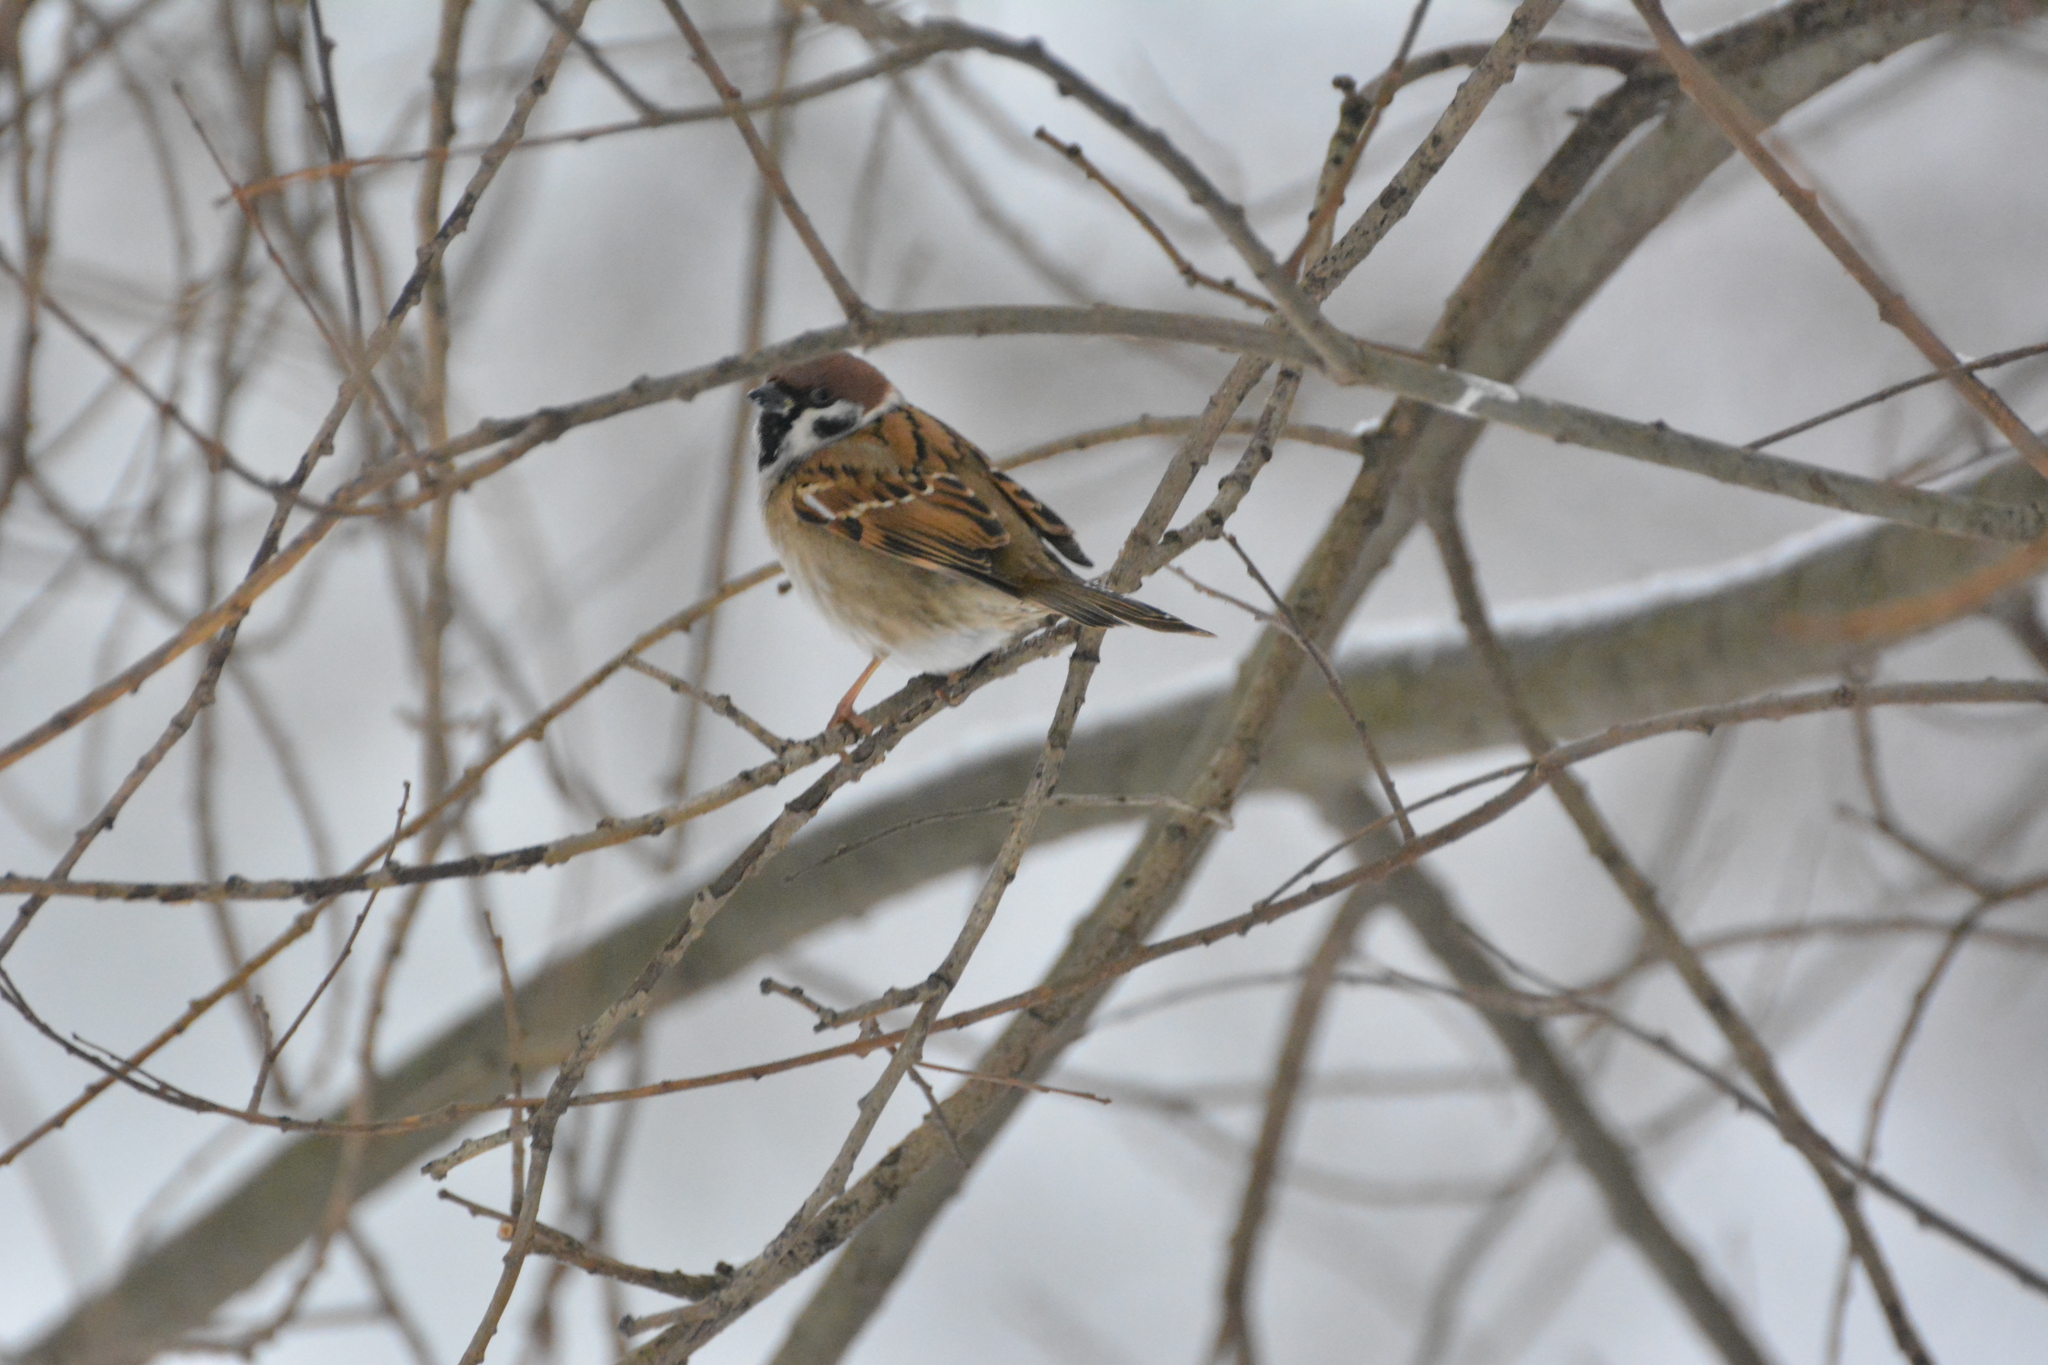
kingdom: Animalia
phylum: Chordata
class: Aves
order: Passeriformes
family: Passeridae
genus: Passer
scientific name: Passer montanus
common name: Eurasian tree sparrow
